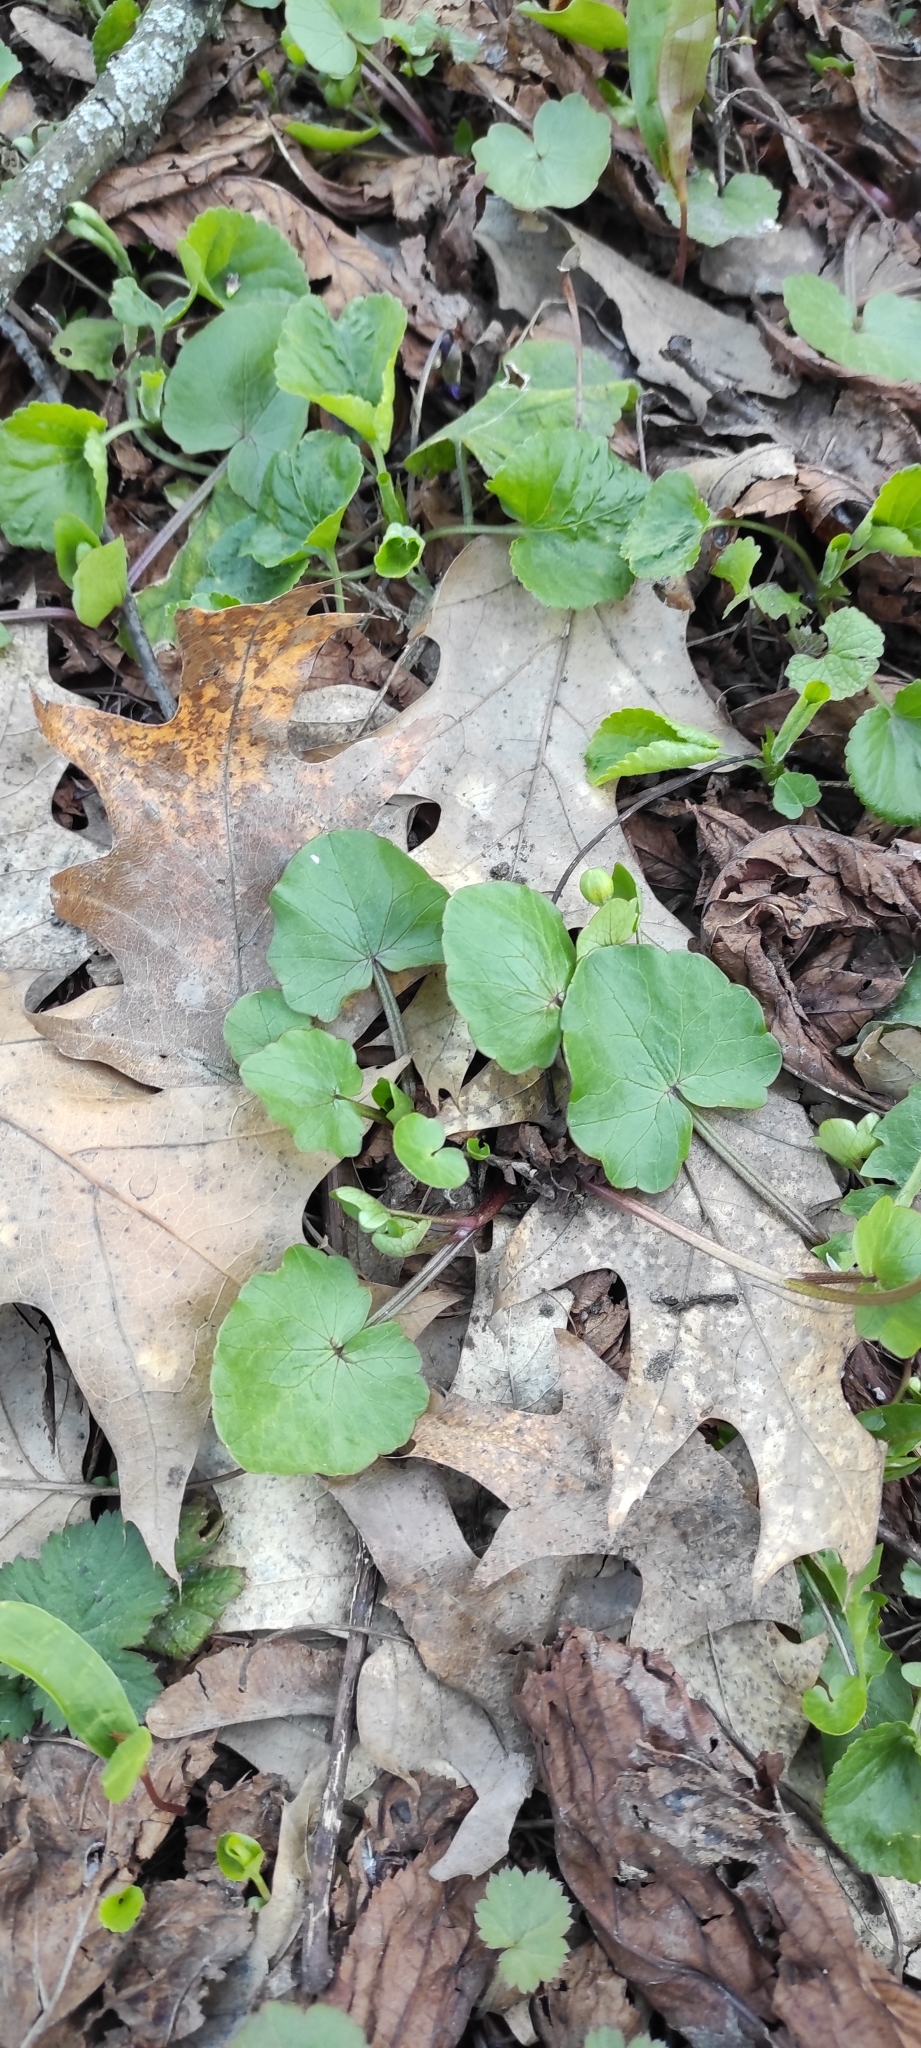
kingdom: Plantae
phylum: Tracheophyta
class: Magnoliopsida
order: Ranunculales
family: Ranunculaceae
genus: Ficaria
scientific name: Ficaria verna
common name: Lesser celandine
